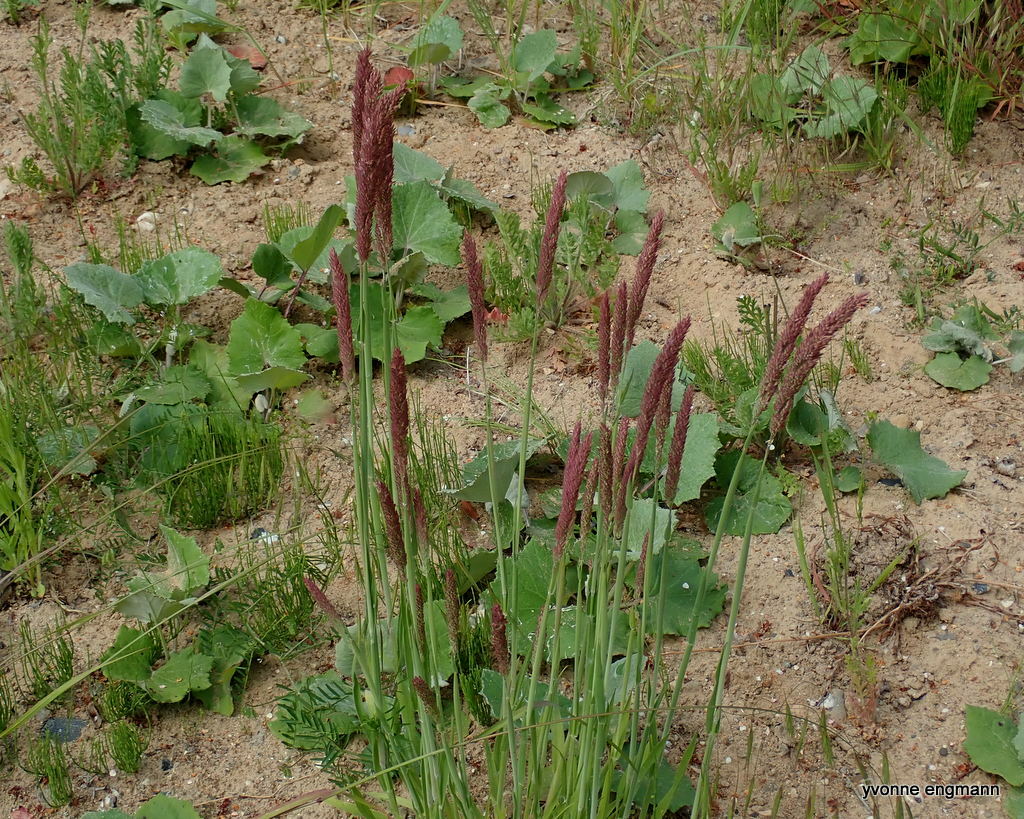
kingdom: Plantae
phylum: Tracheophyta
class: Liliopsida
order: Poales
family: Poaceae
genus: Holcus
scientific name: Holcus lanatus
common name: Yorkshire-fog
